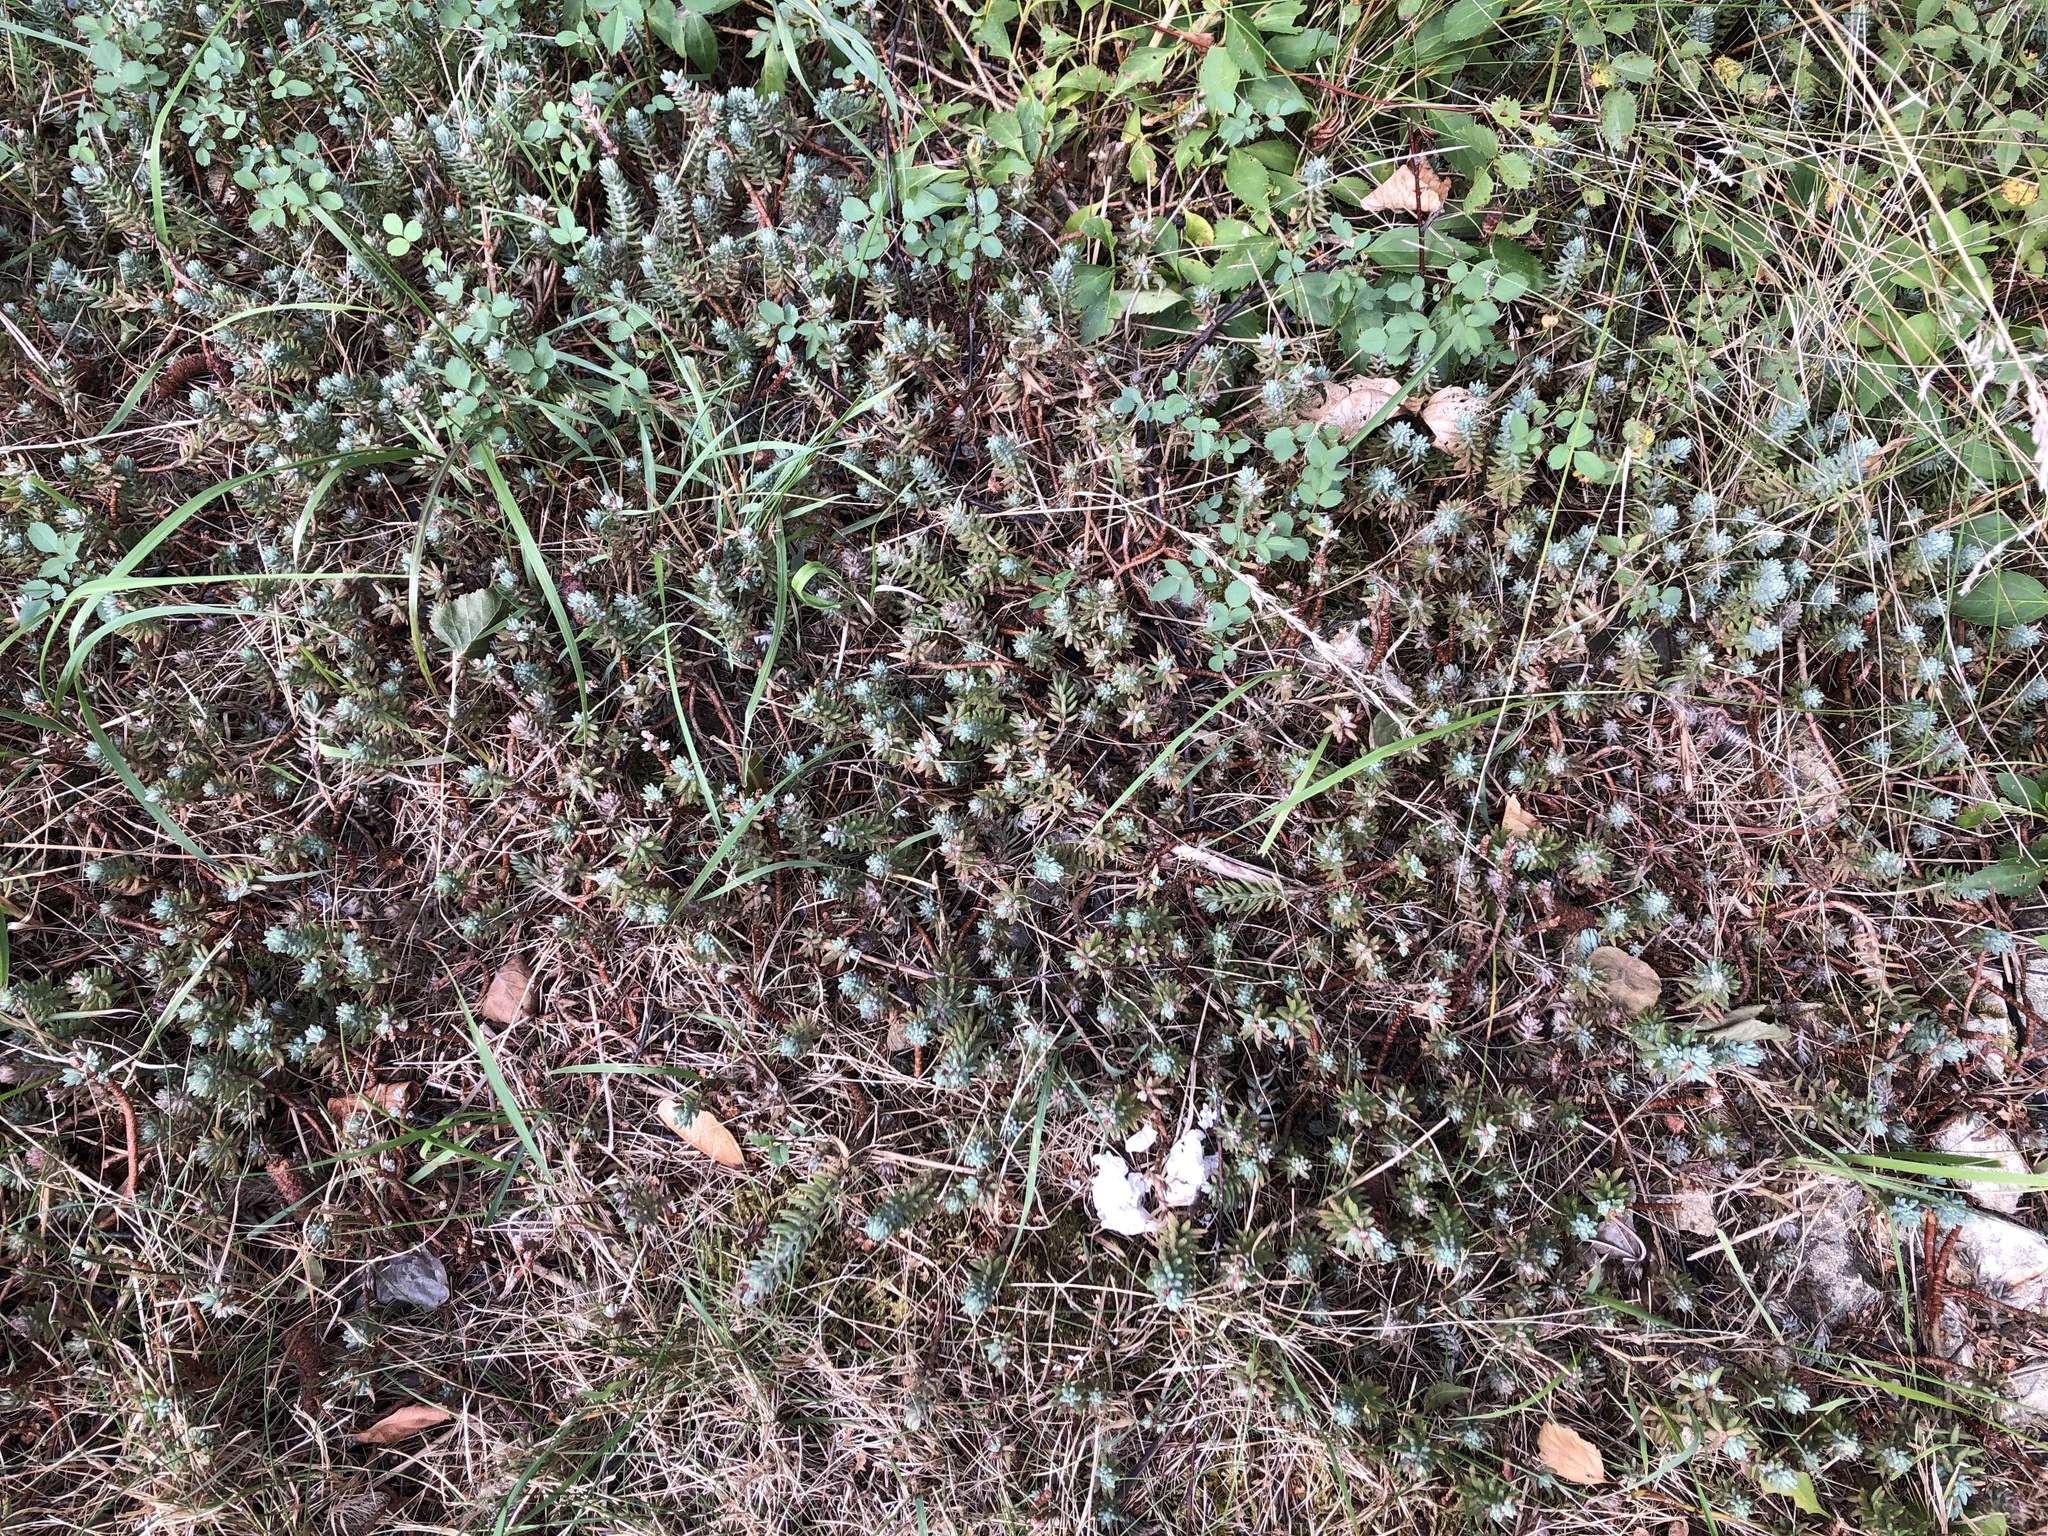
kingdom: Plantae
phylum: Tracheophyta
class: Magnoliopsida
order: Saxifragales
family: Crassulaceae
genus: Petrosedum
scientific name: Petrosedum
